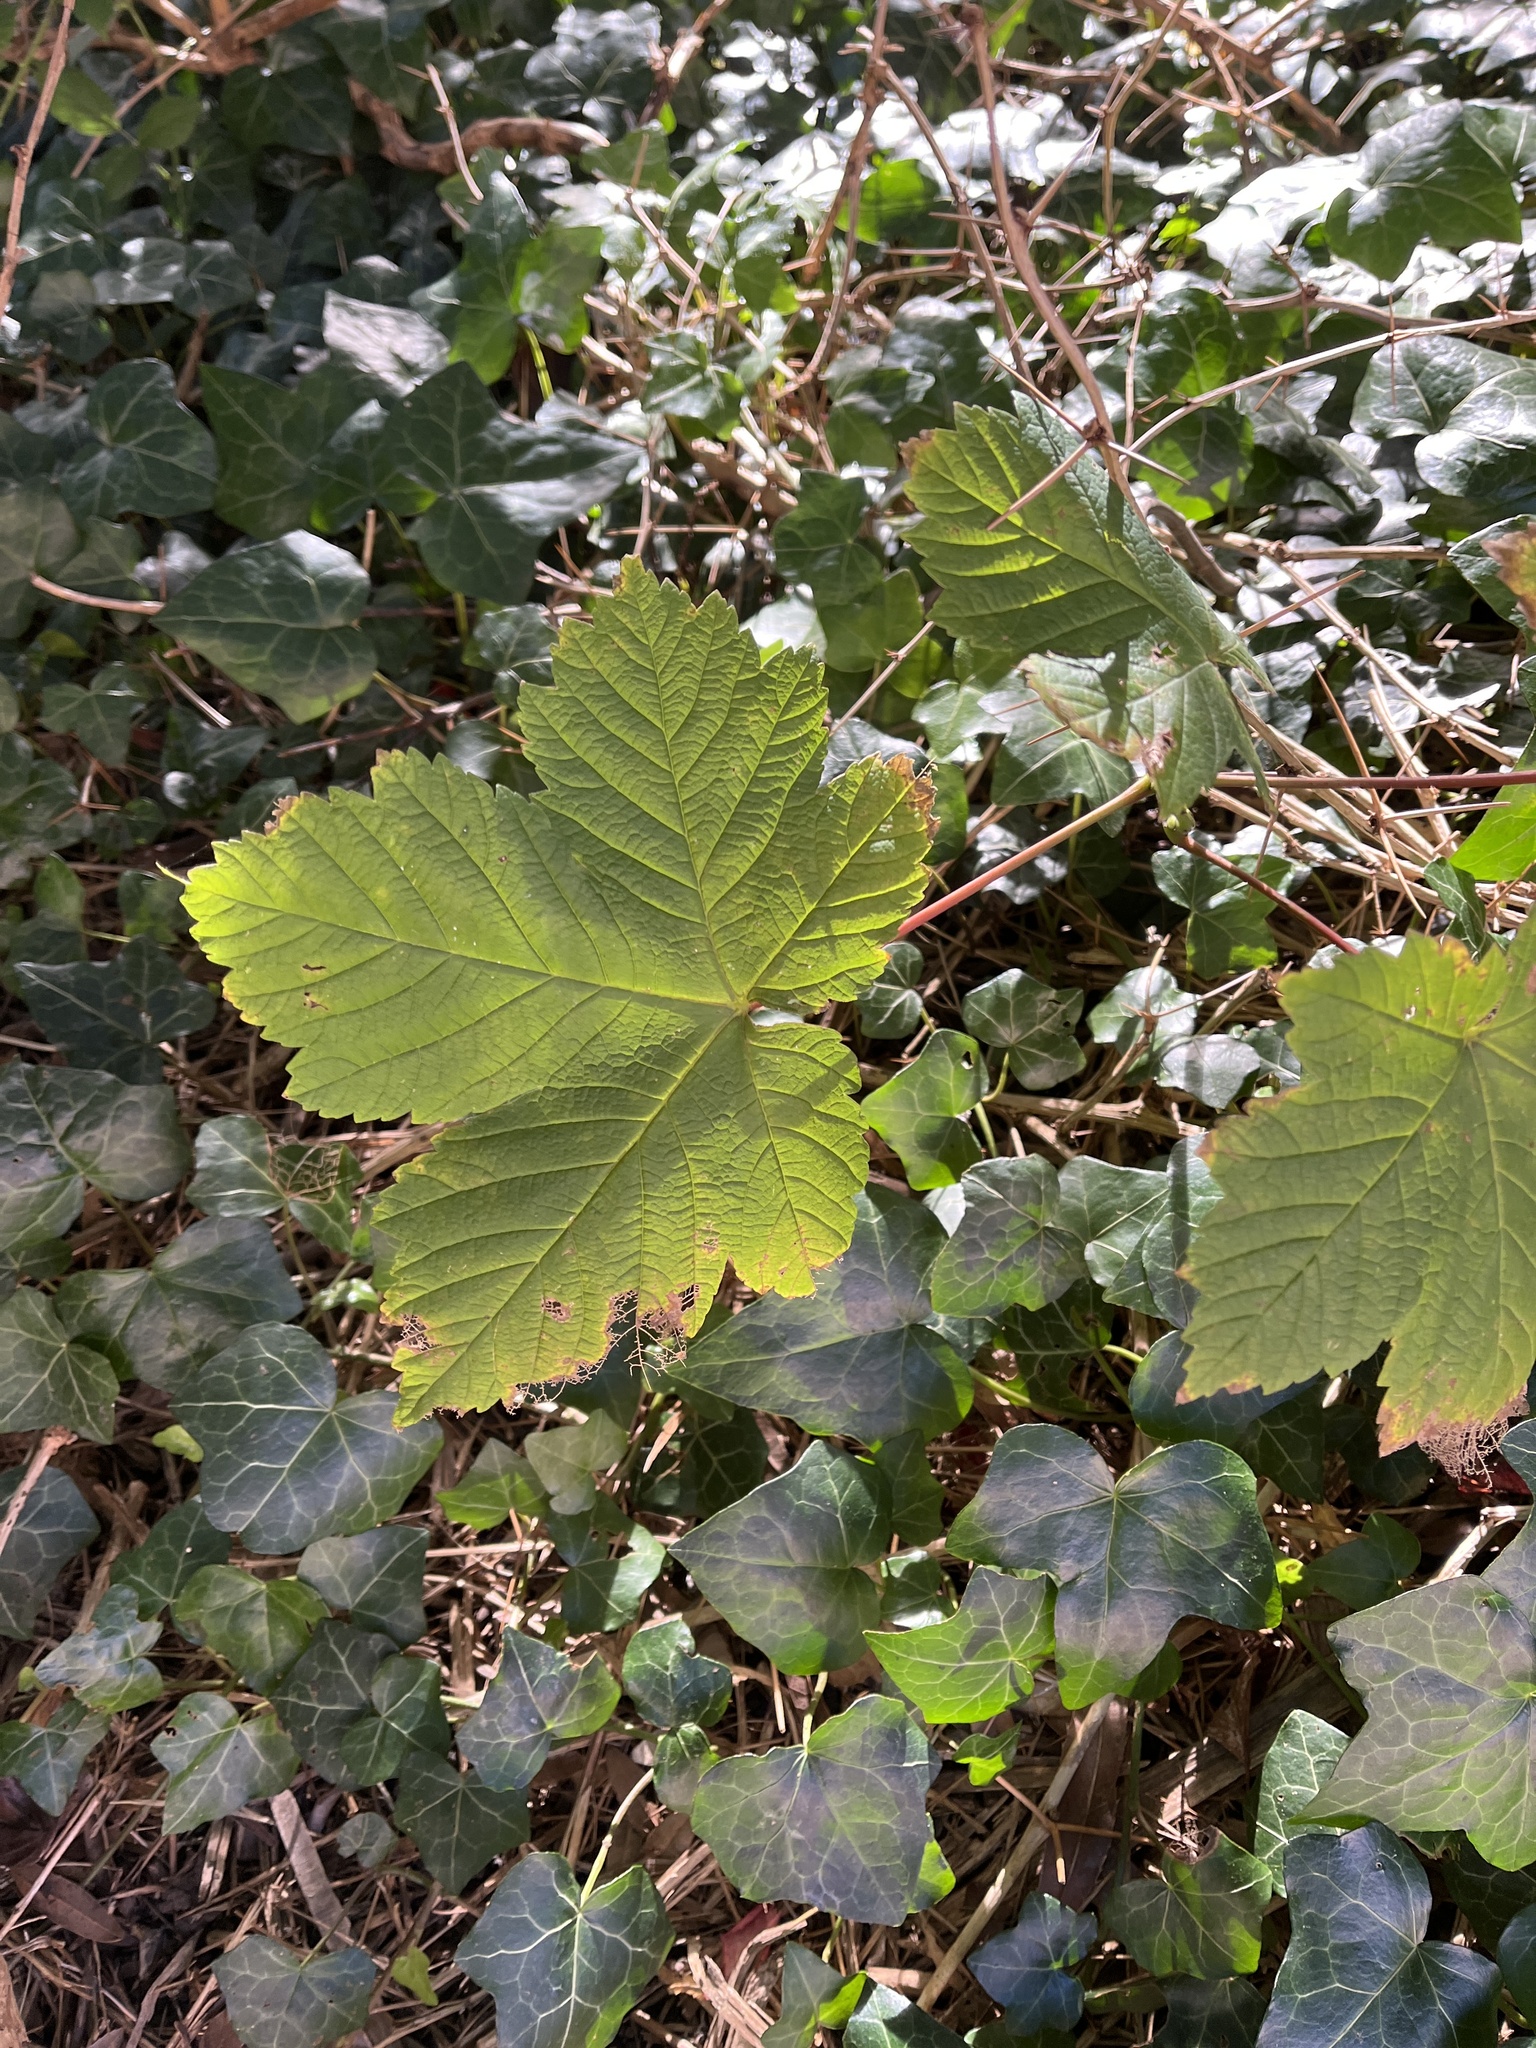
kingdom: Plantae
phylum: Tracheophyta
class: Magnoliopsida
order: Sapindales
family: Sapindaceae
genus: Acer
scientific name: Acer pseudoplatanus
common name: Sycamore
